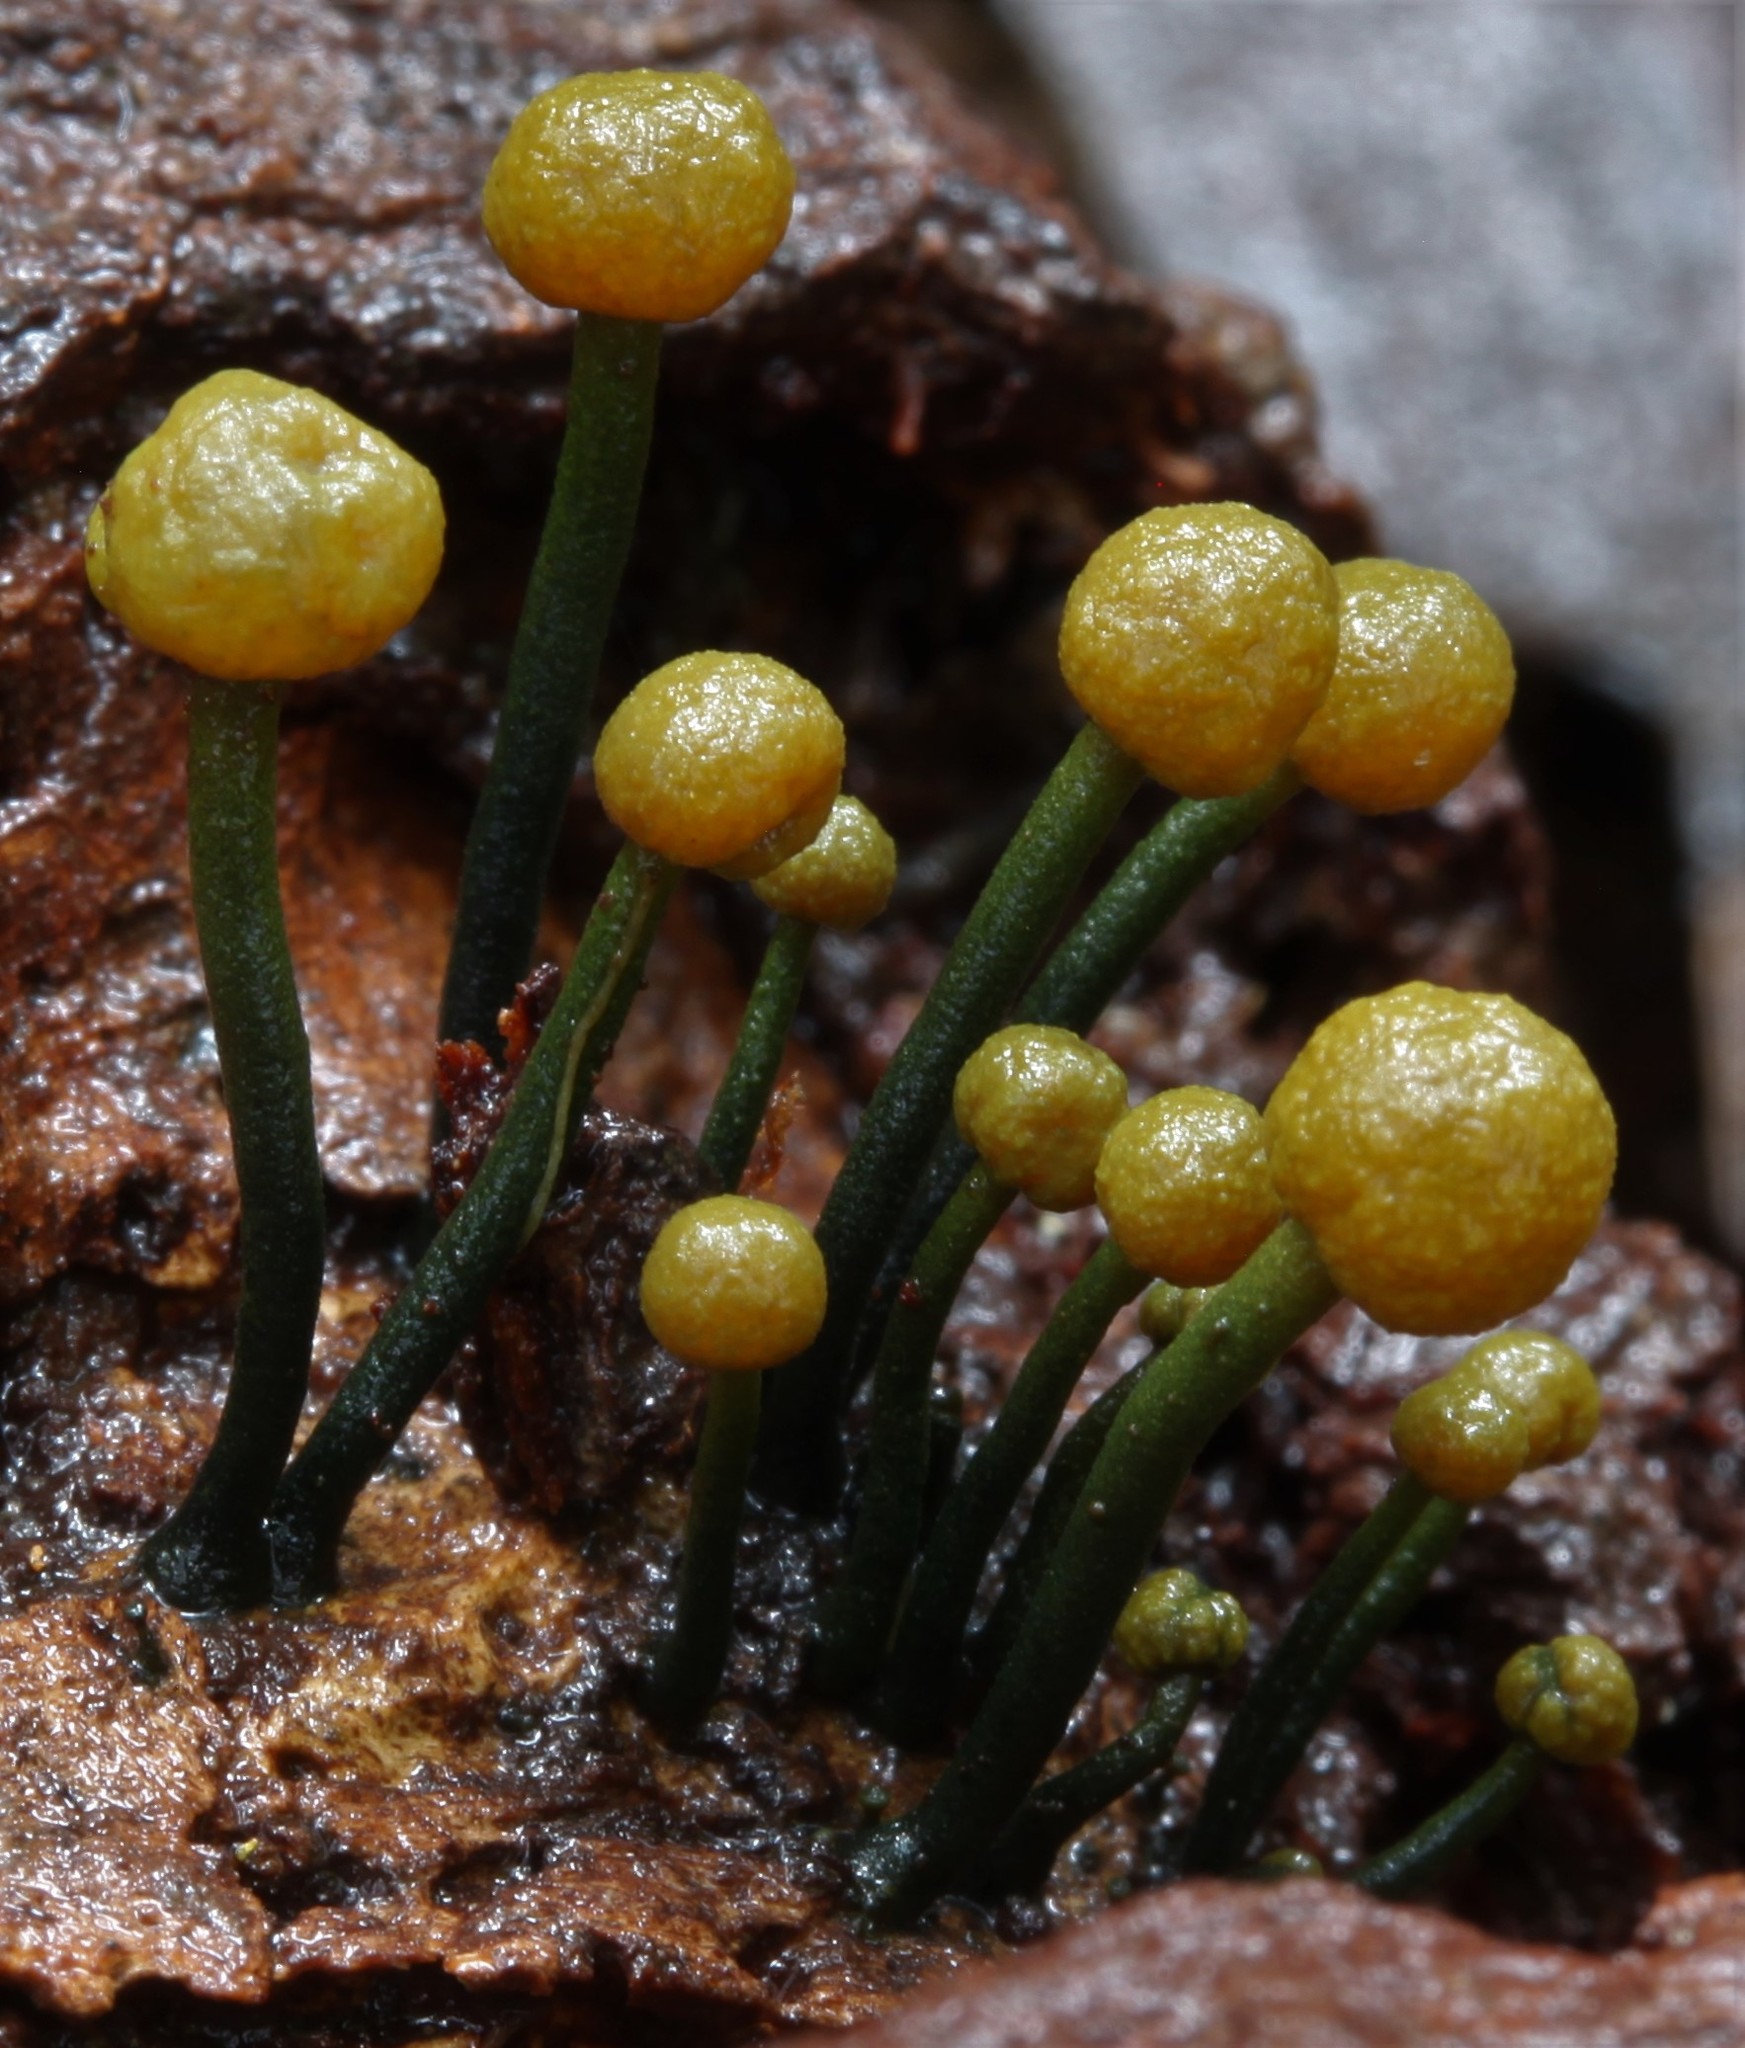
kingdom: Fungi
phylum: Ascomycota
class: Leotiomycetes
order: Helotiales
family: Vibrisseaceae
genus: Chlorovibrissea
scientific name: Chlorovibrissea bicolor
